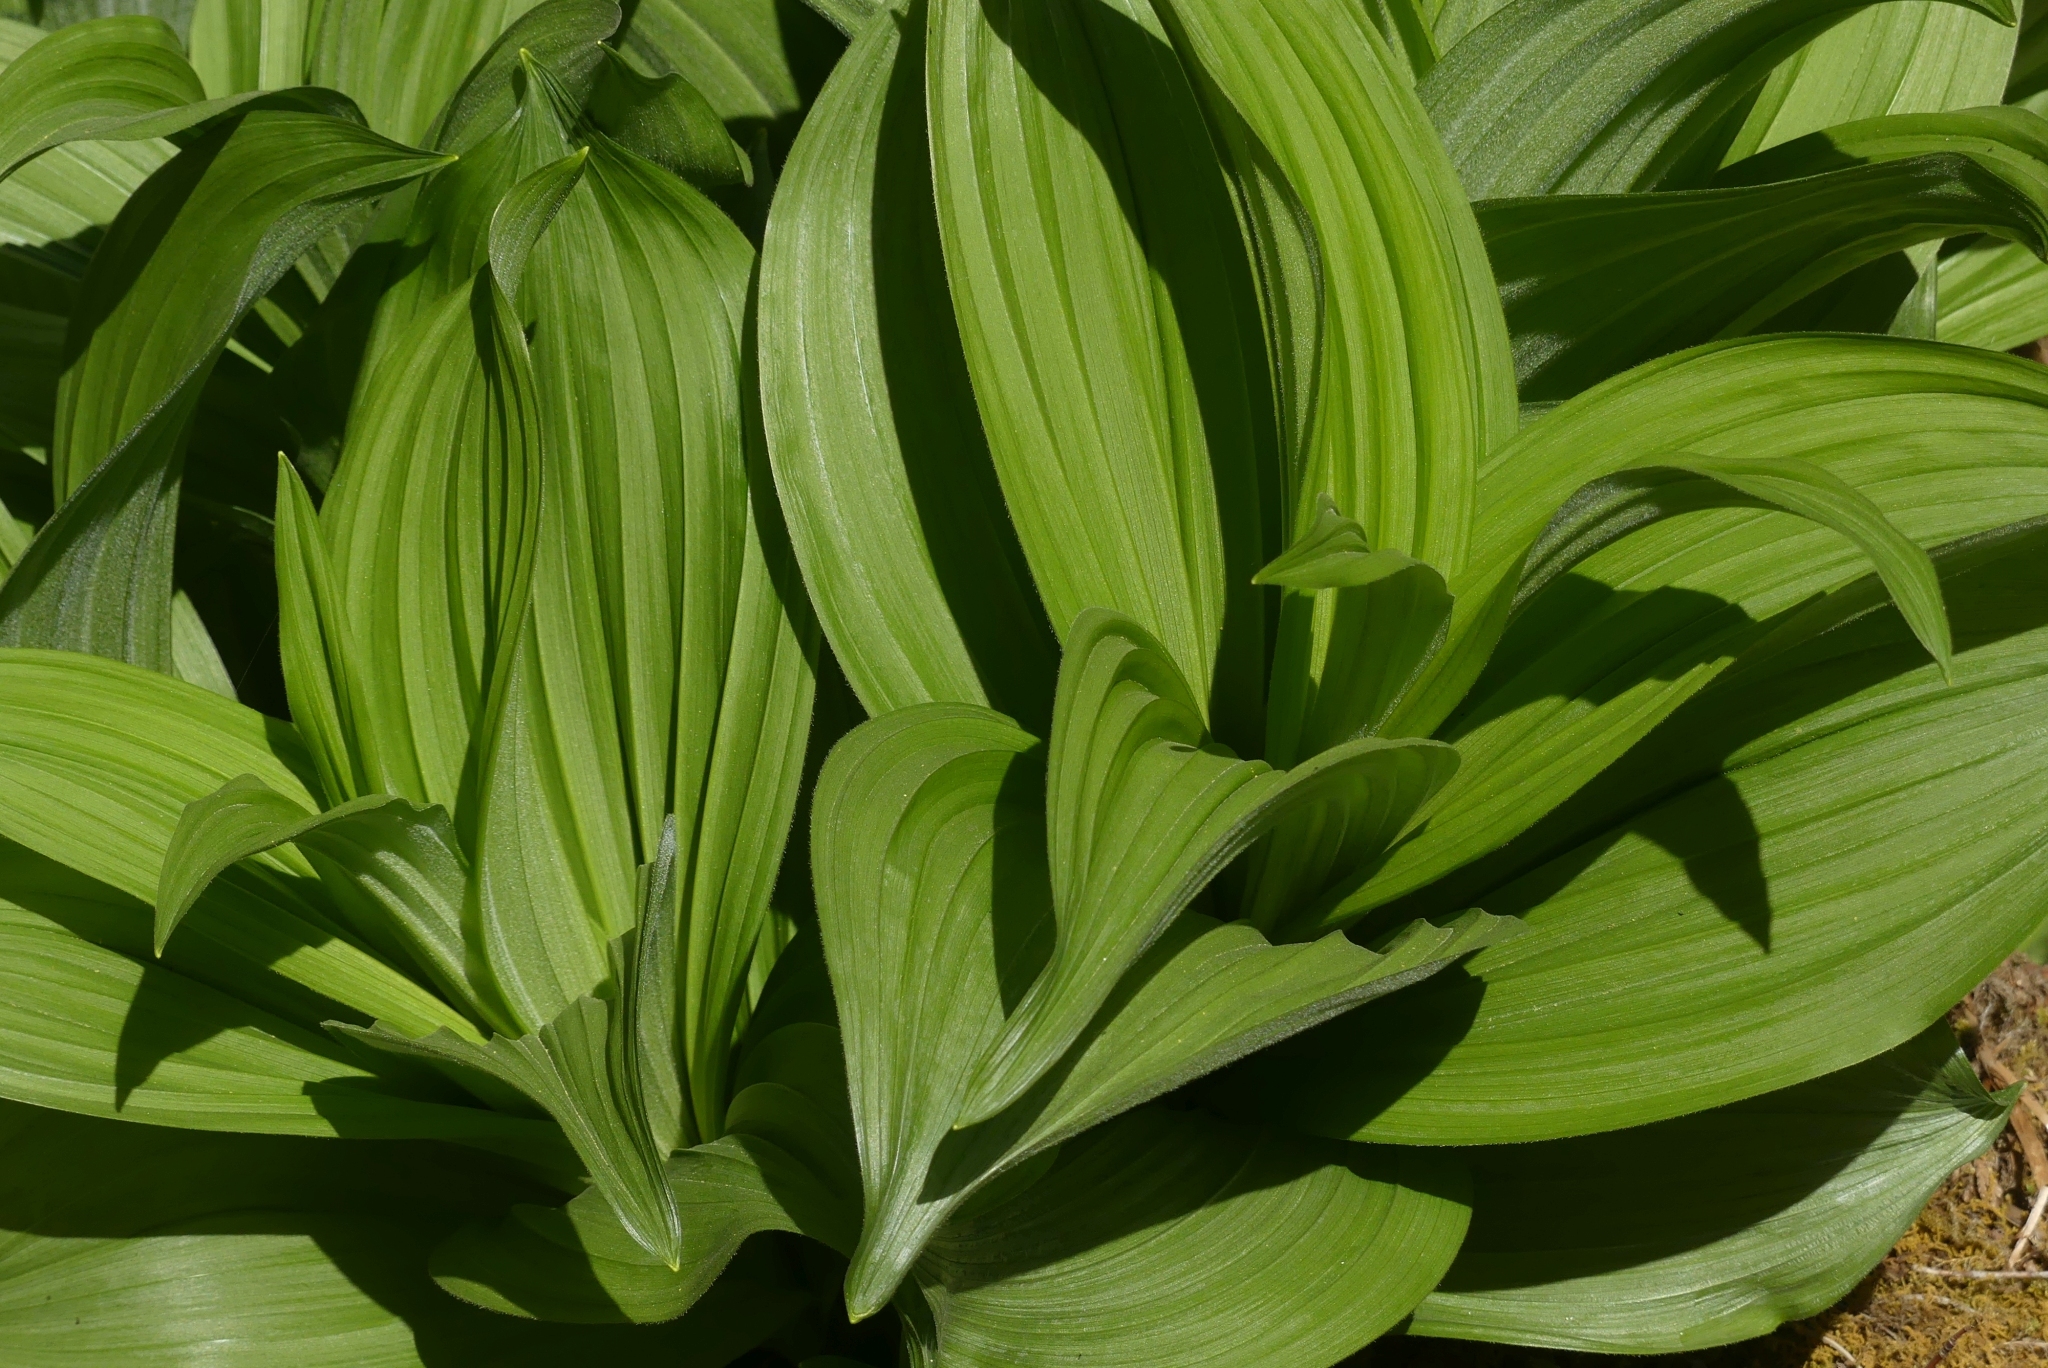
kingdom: Plantae
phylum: Tracheophyta
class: Liliopsida
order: Liliales
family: Melanthiaceae
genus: Veratrum
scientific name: Veratrum viride
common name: American false hellebore
